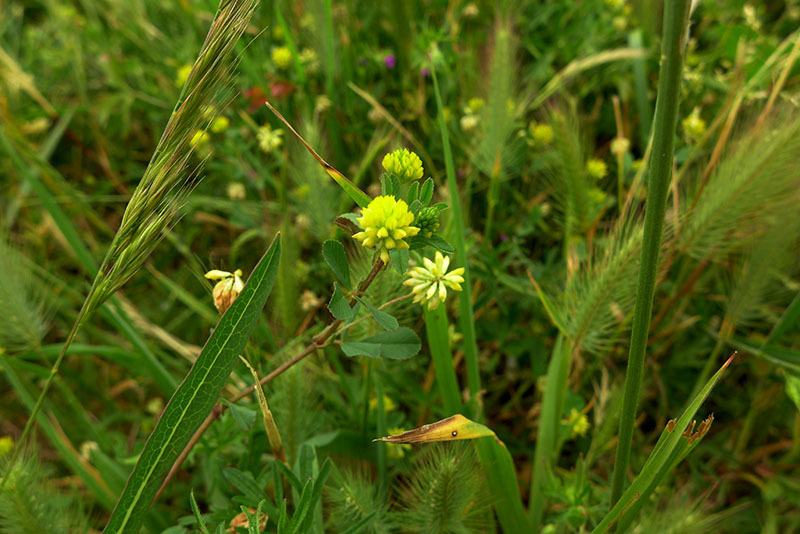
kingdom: Plantae
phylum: Tracheophyta
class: Magnoliopsida
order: Fabales
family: Fabaceae
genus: Trifolium
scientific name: Trifolium dubium
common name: Suckling clover
